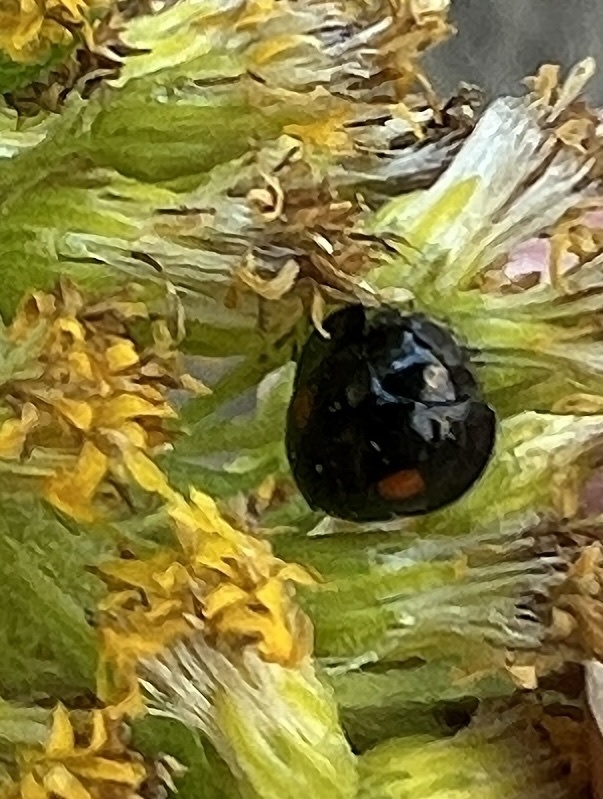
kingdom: Animalia
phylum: Arthropoda
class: Insecta
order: Coleoptera
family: Coccinellidae
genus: Chilocorus
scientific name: Chilocorus stigma
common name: Twicestabbed lady beetle
